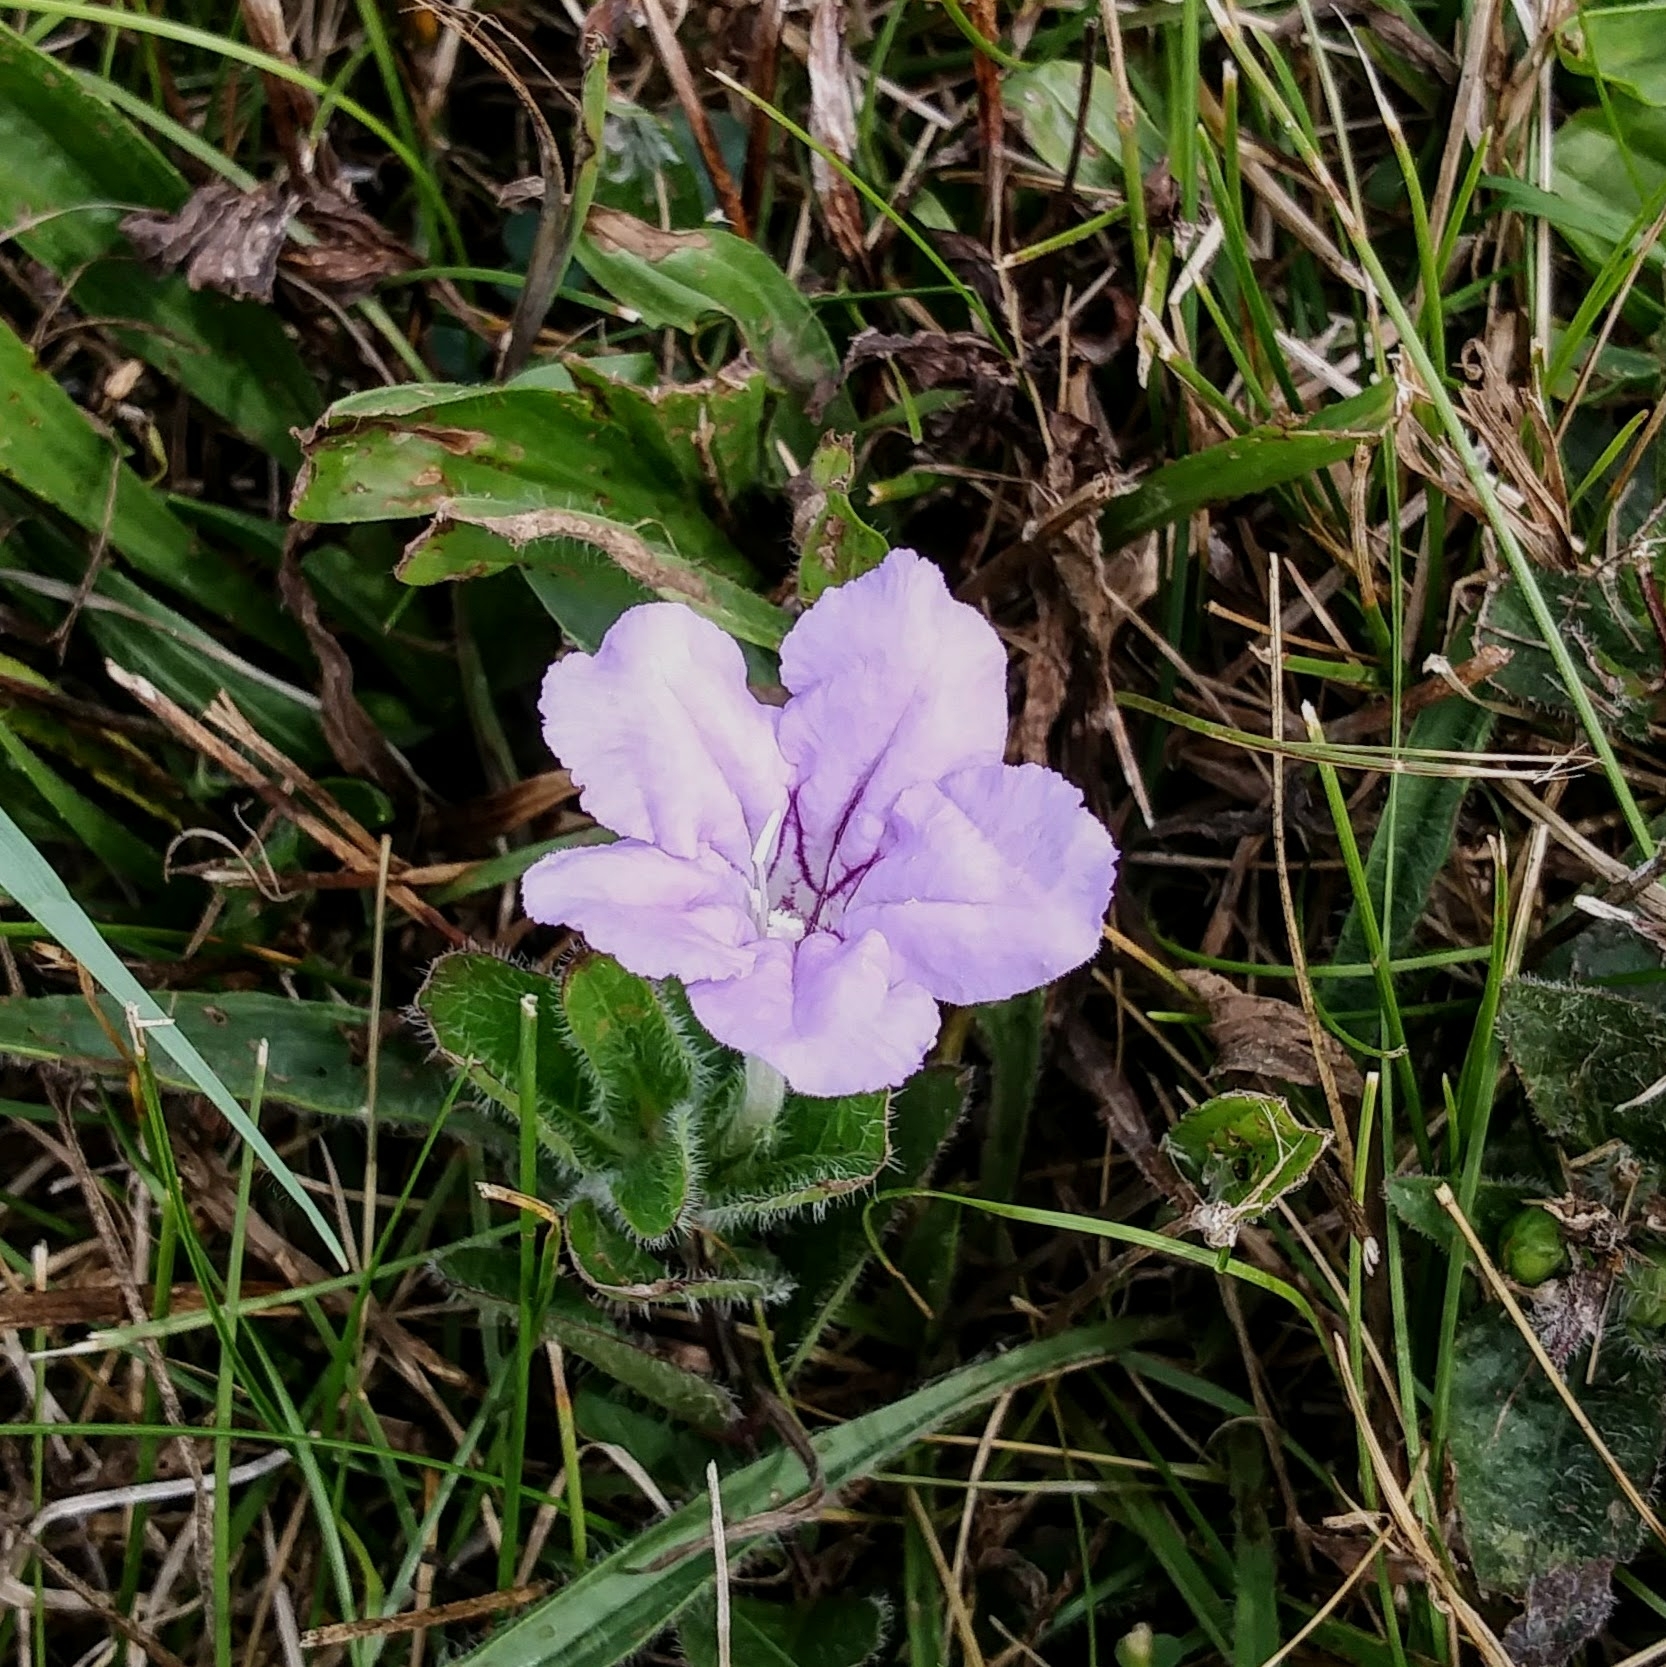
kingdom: Plantae
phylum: Tracheophyta
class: Magnoliopsida
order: Lamiales
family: Acanthaceae
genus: Ruellia
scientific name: Ruellia humilis
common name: Fringe-leaf ruellia
